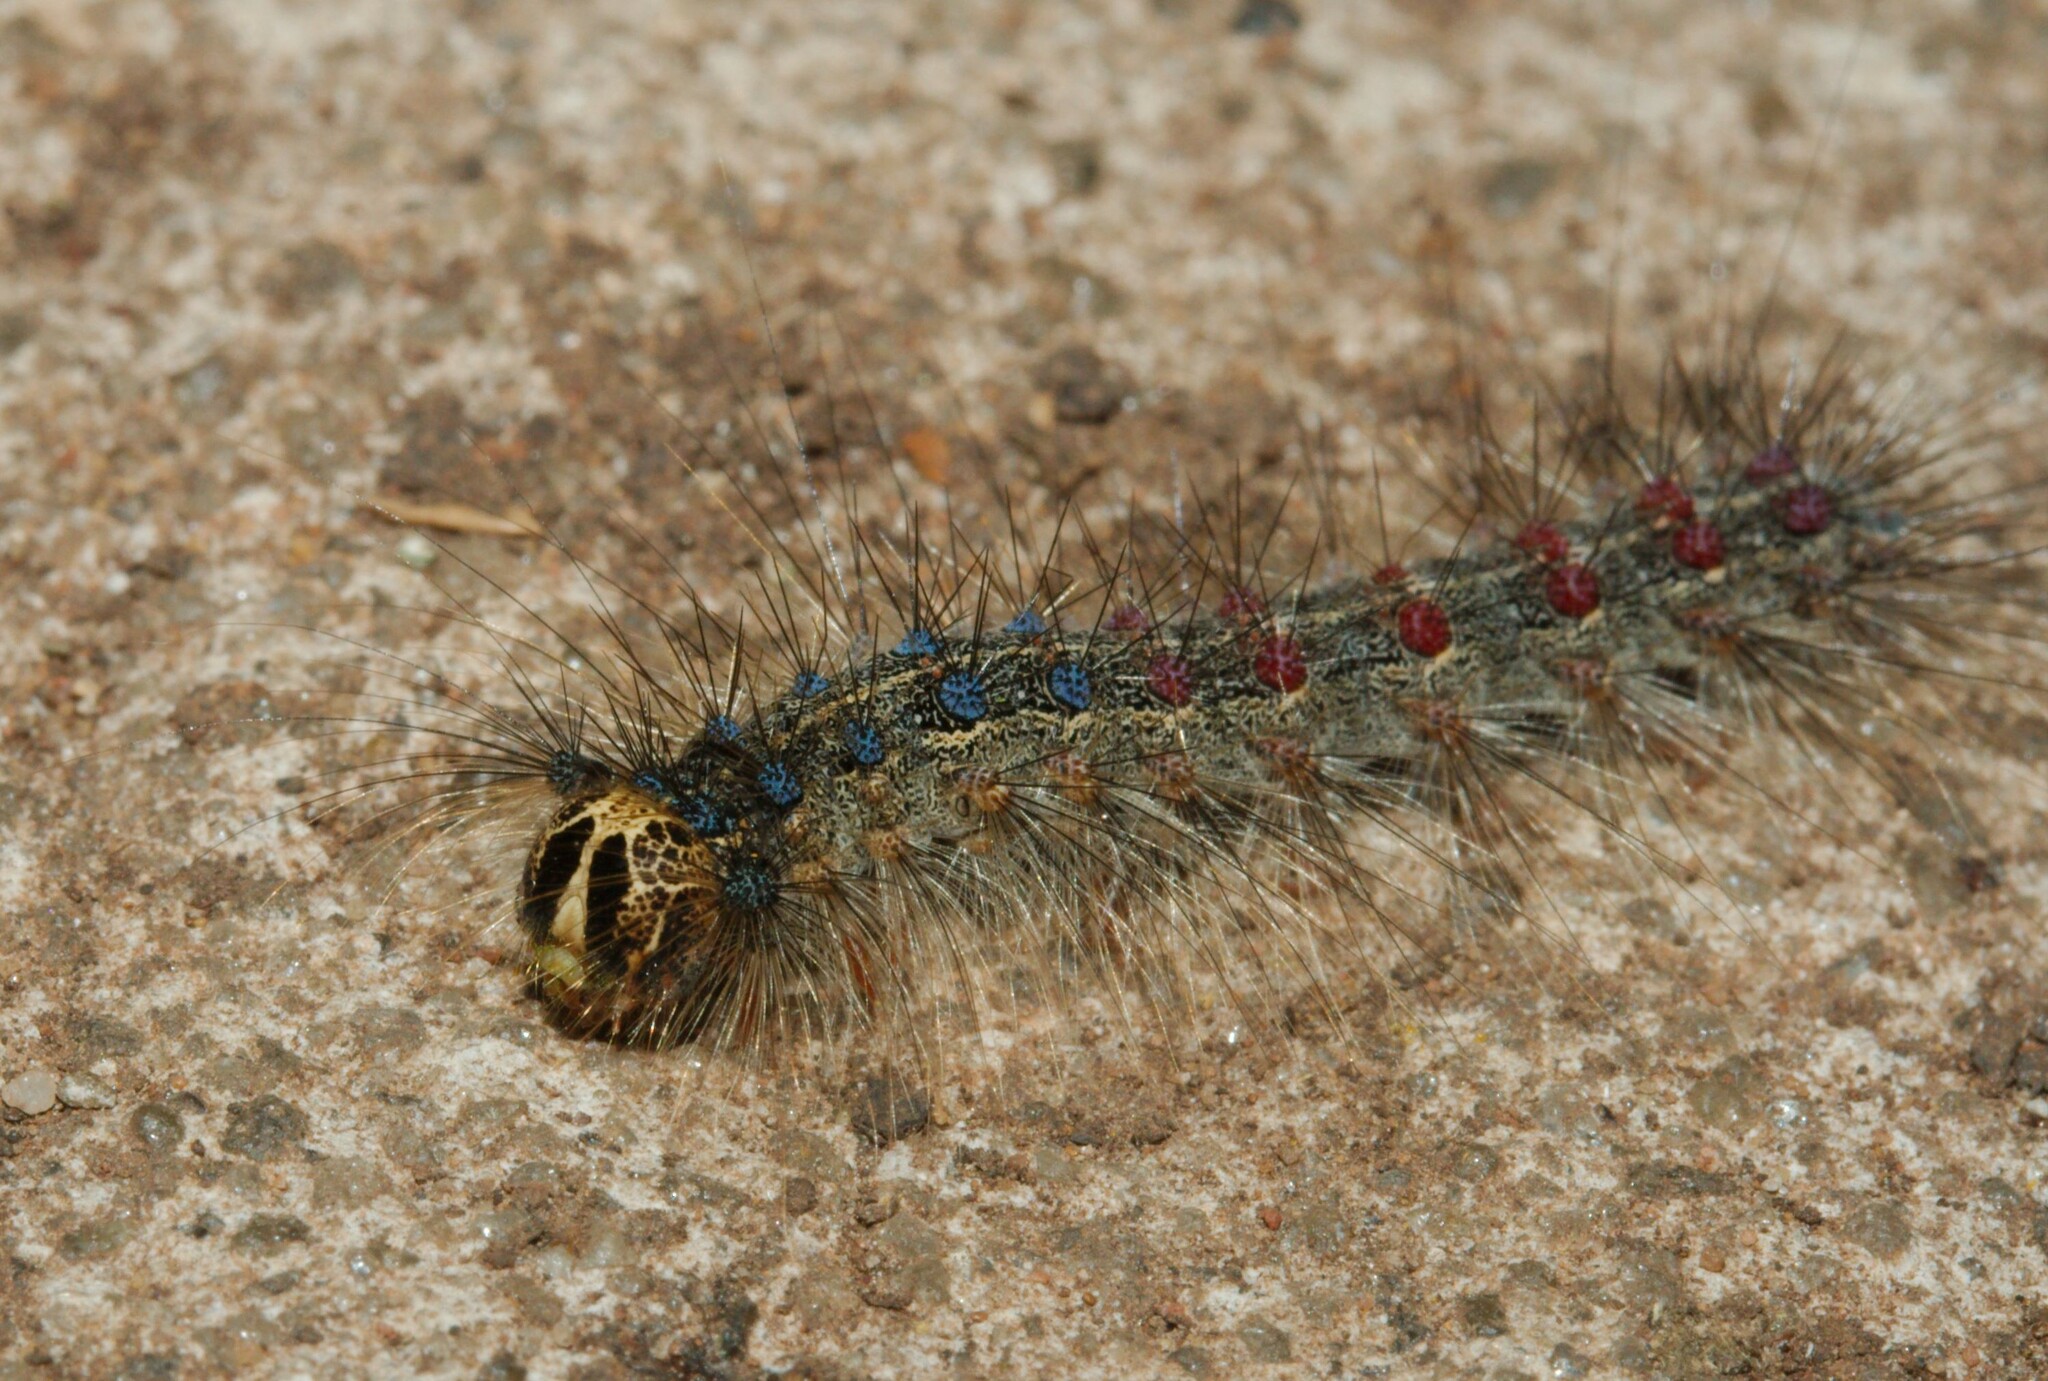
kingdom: Animalia
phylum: Arthropoda
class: Insecta
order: Lepidoptera
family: Erebidae
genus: Lymantria
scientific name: Lymantria dispar
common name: Gypsy moth
